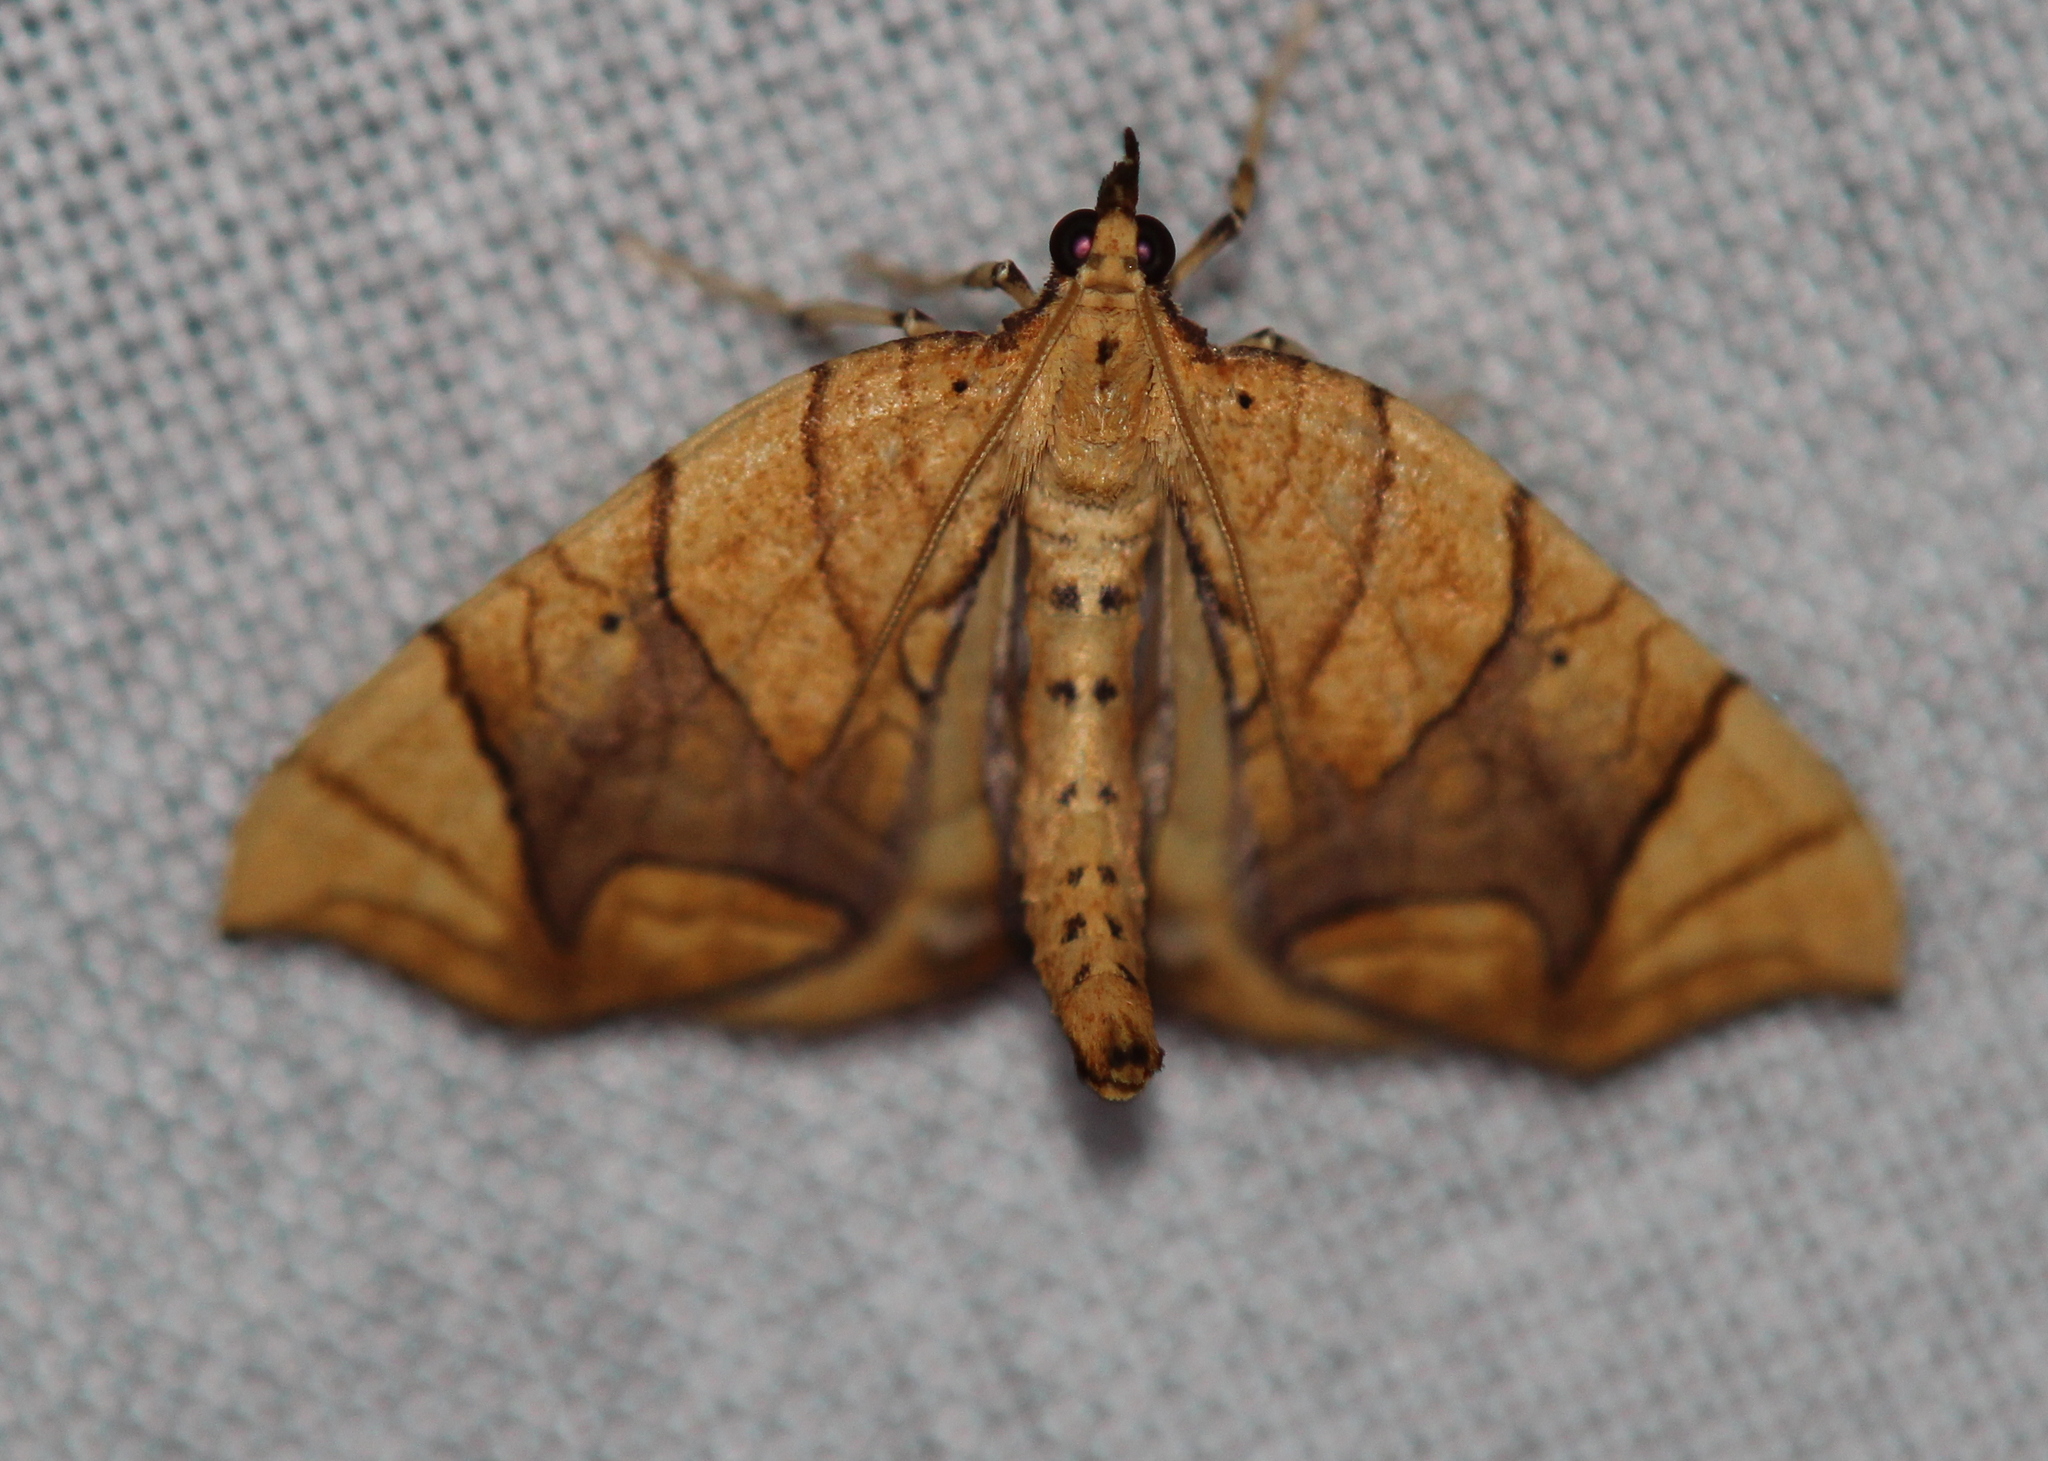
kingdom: Animalia
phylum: Arthropoda
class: Insecta
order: Lepidoptera
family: Geometridae
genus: Eulithis
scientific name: Eulithis
